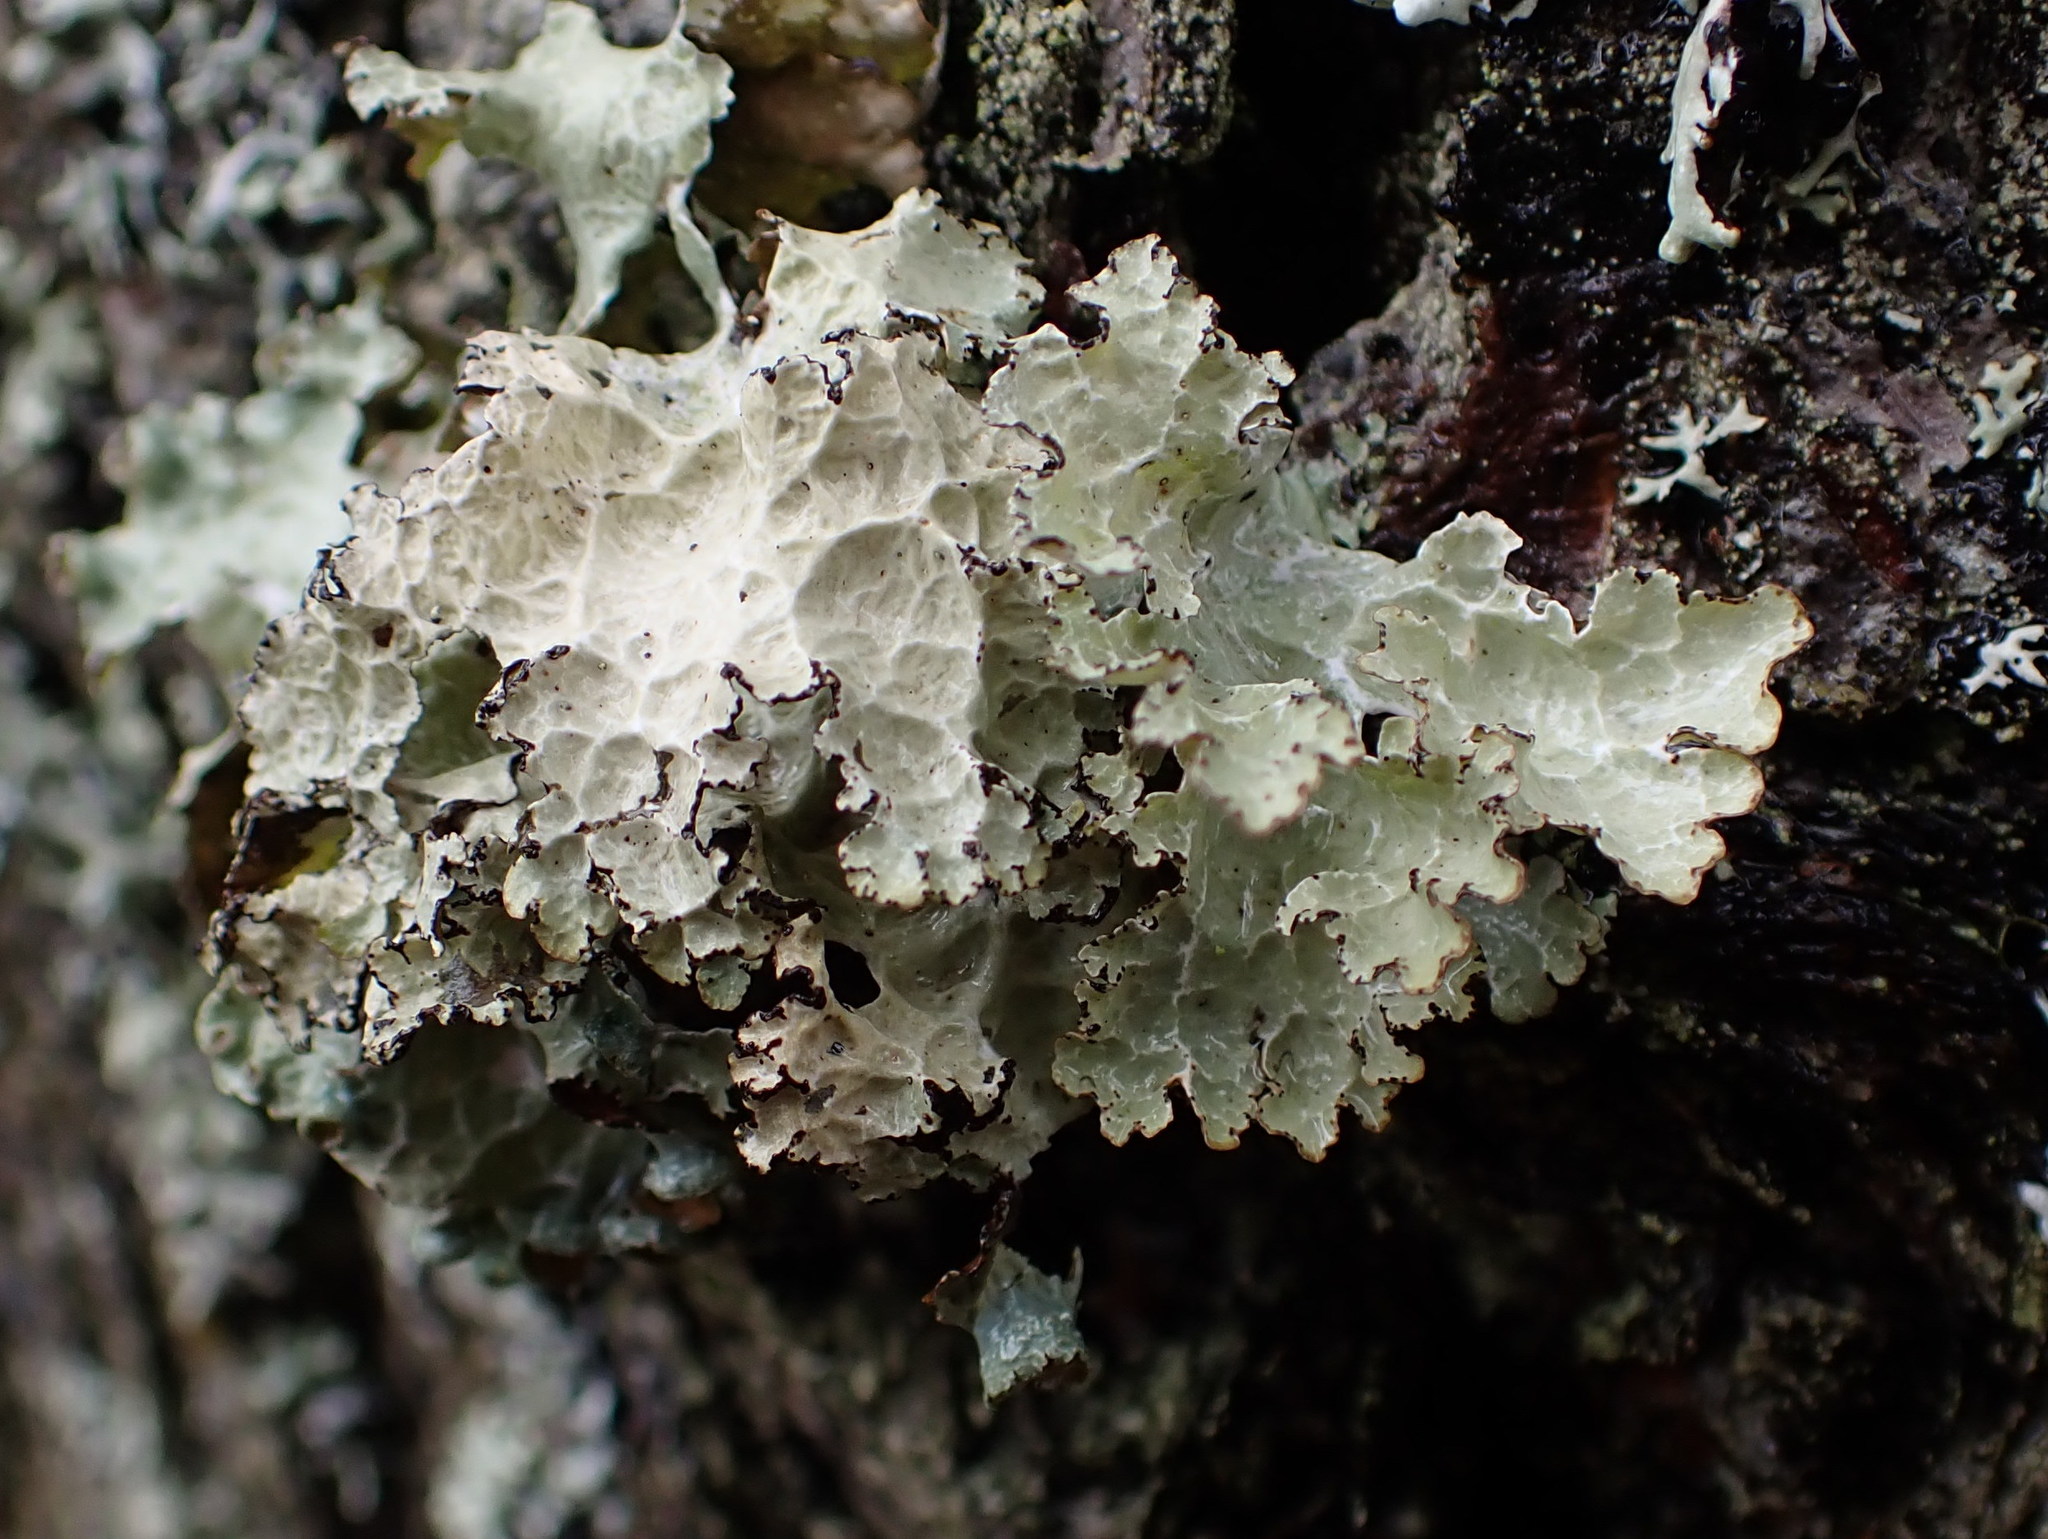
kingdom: Fungi
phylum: Ascomycota
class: Lecanoromycetes
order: Lecanorales
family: Parmeliaceae
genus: Platismatia
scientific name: Platismatia tuckermanii
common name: Crumpled rag lichen
